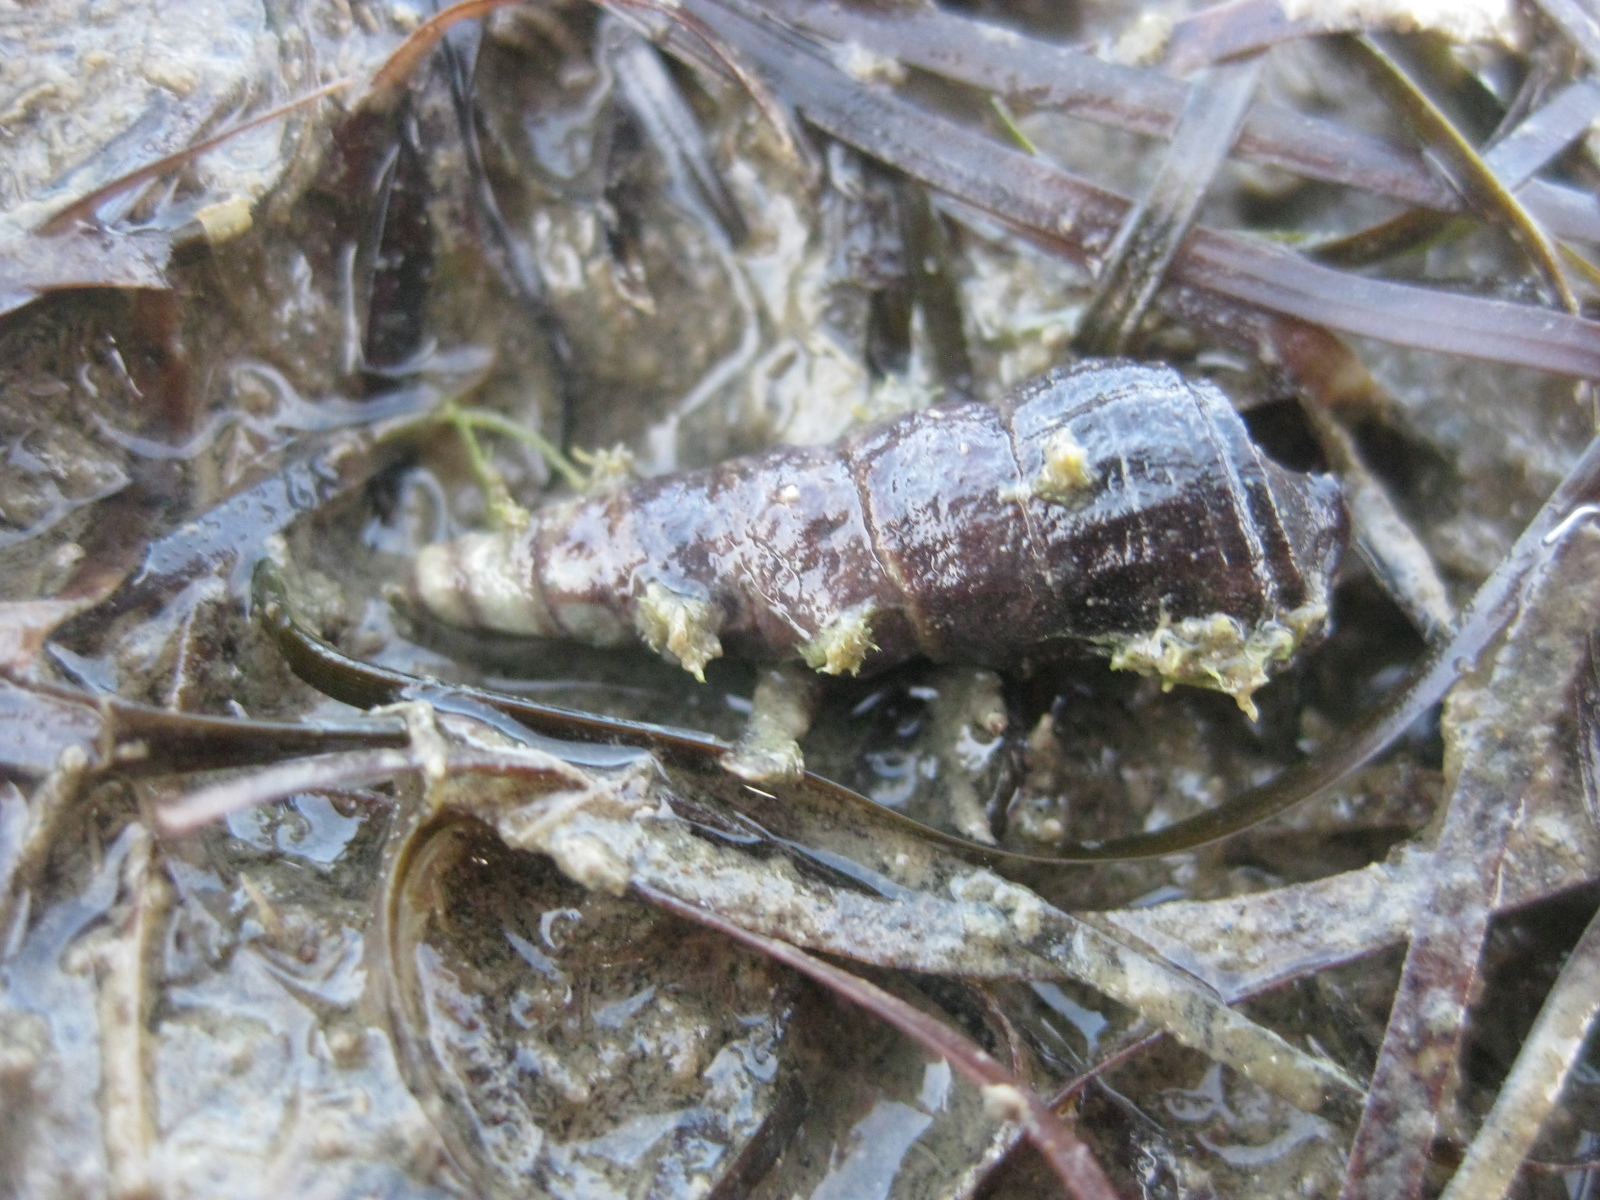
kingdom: Animalia
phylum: Mollusca
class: Gastropoda
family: Batillariidae
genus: Zeacumantus
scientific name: Zeacumantus lutulentus
